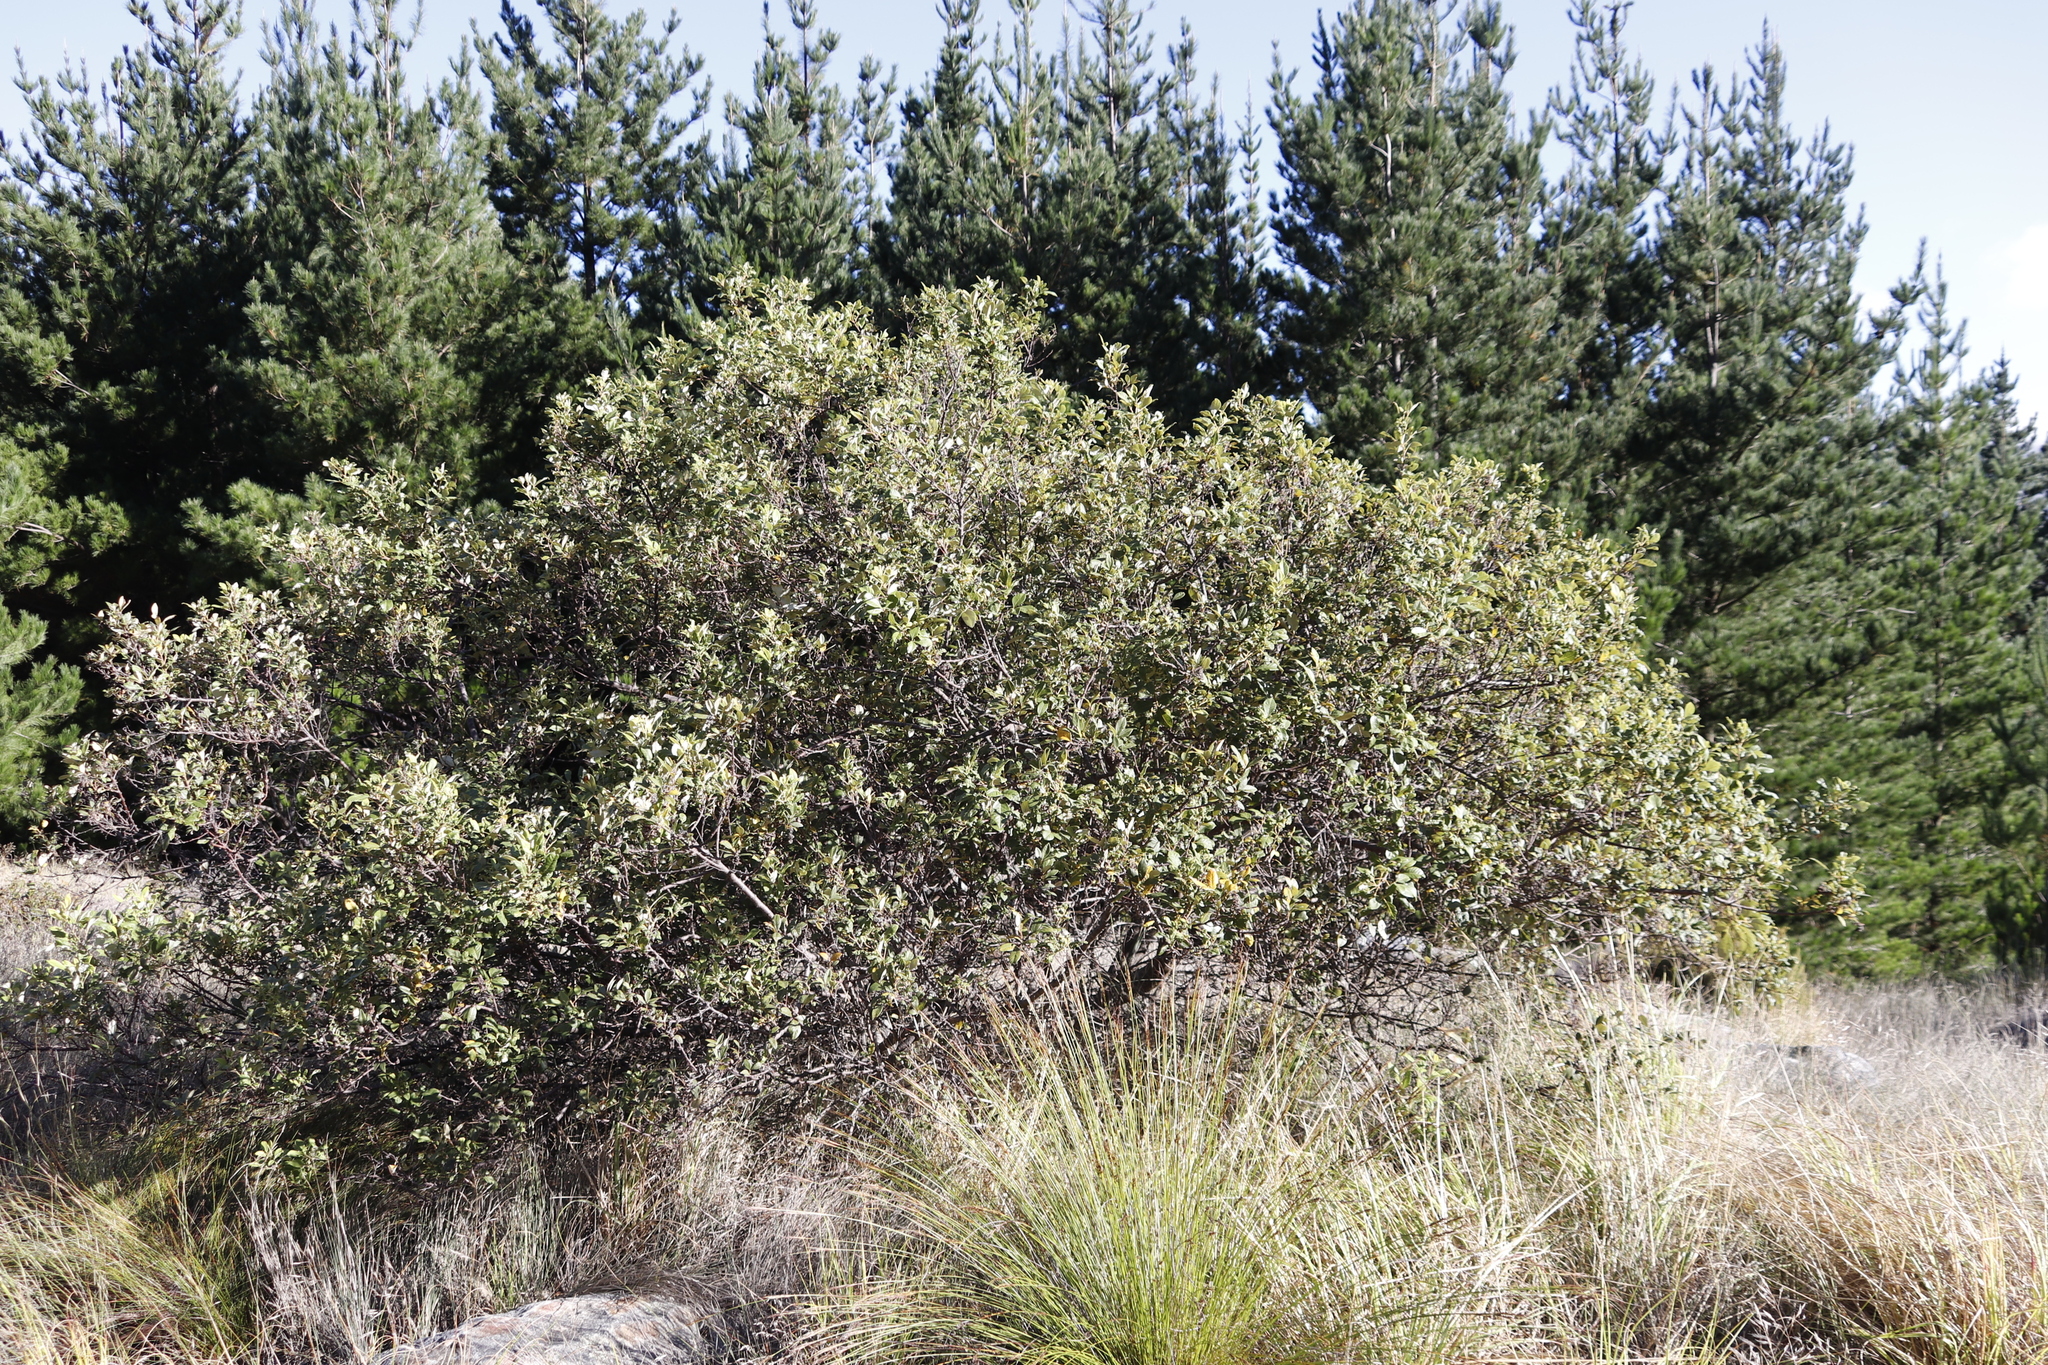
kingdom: Plantae
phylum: Tracheophyta
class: Magnoliopsida
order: Sapindales
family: Anacardiaceae
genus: Searsia
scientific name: Searsia tomentosa
